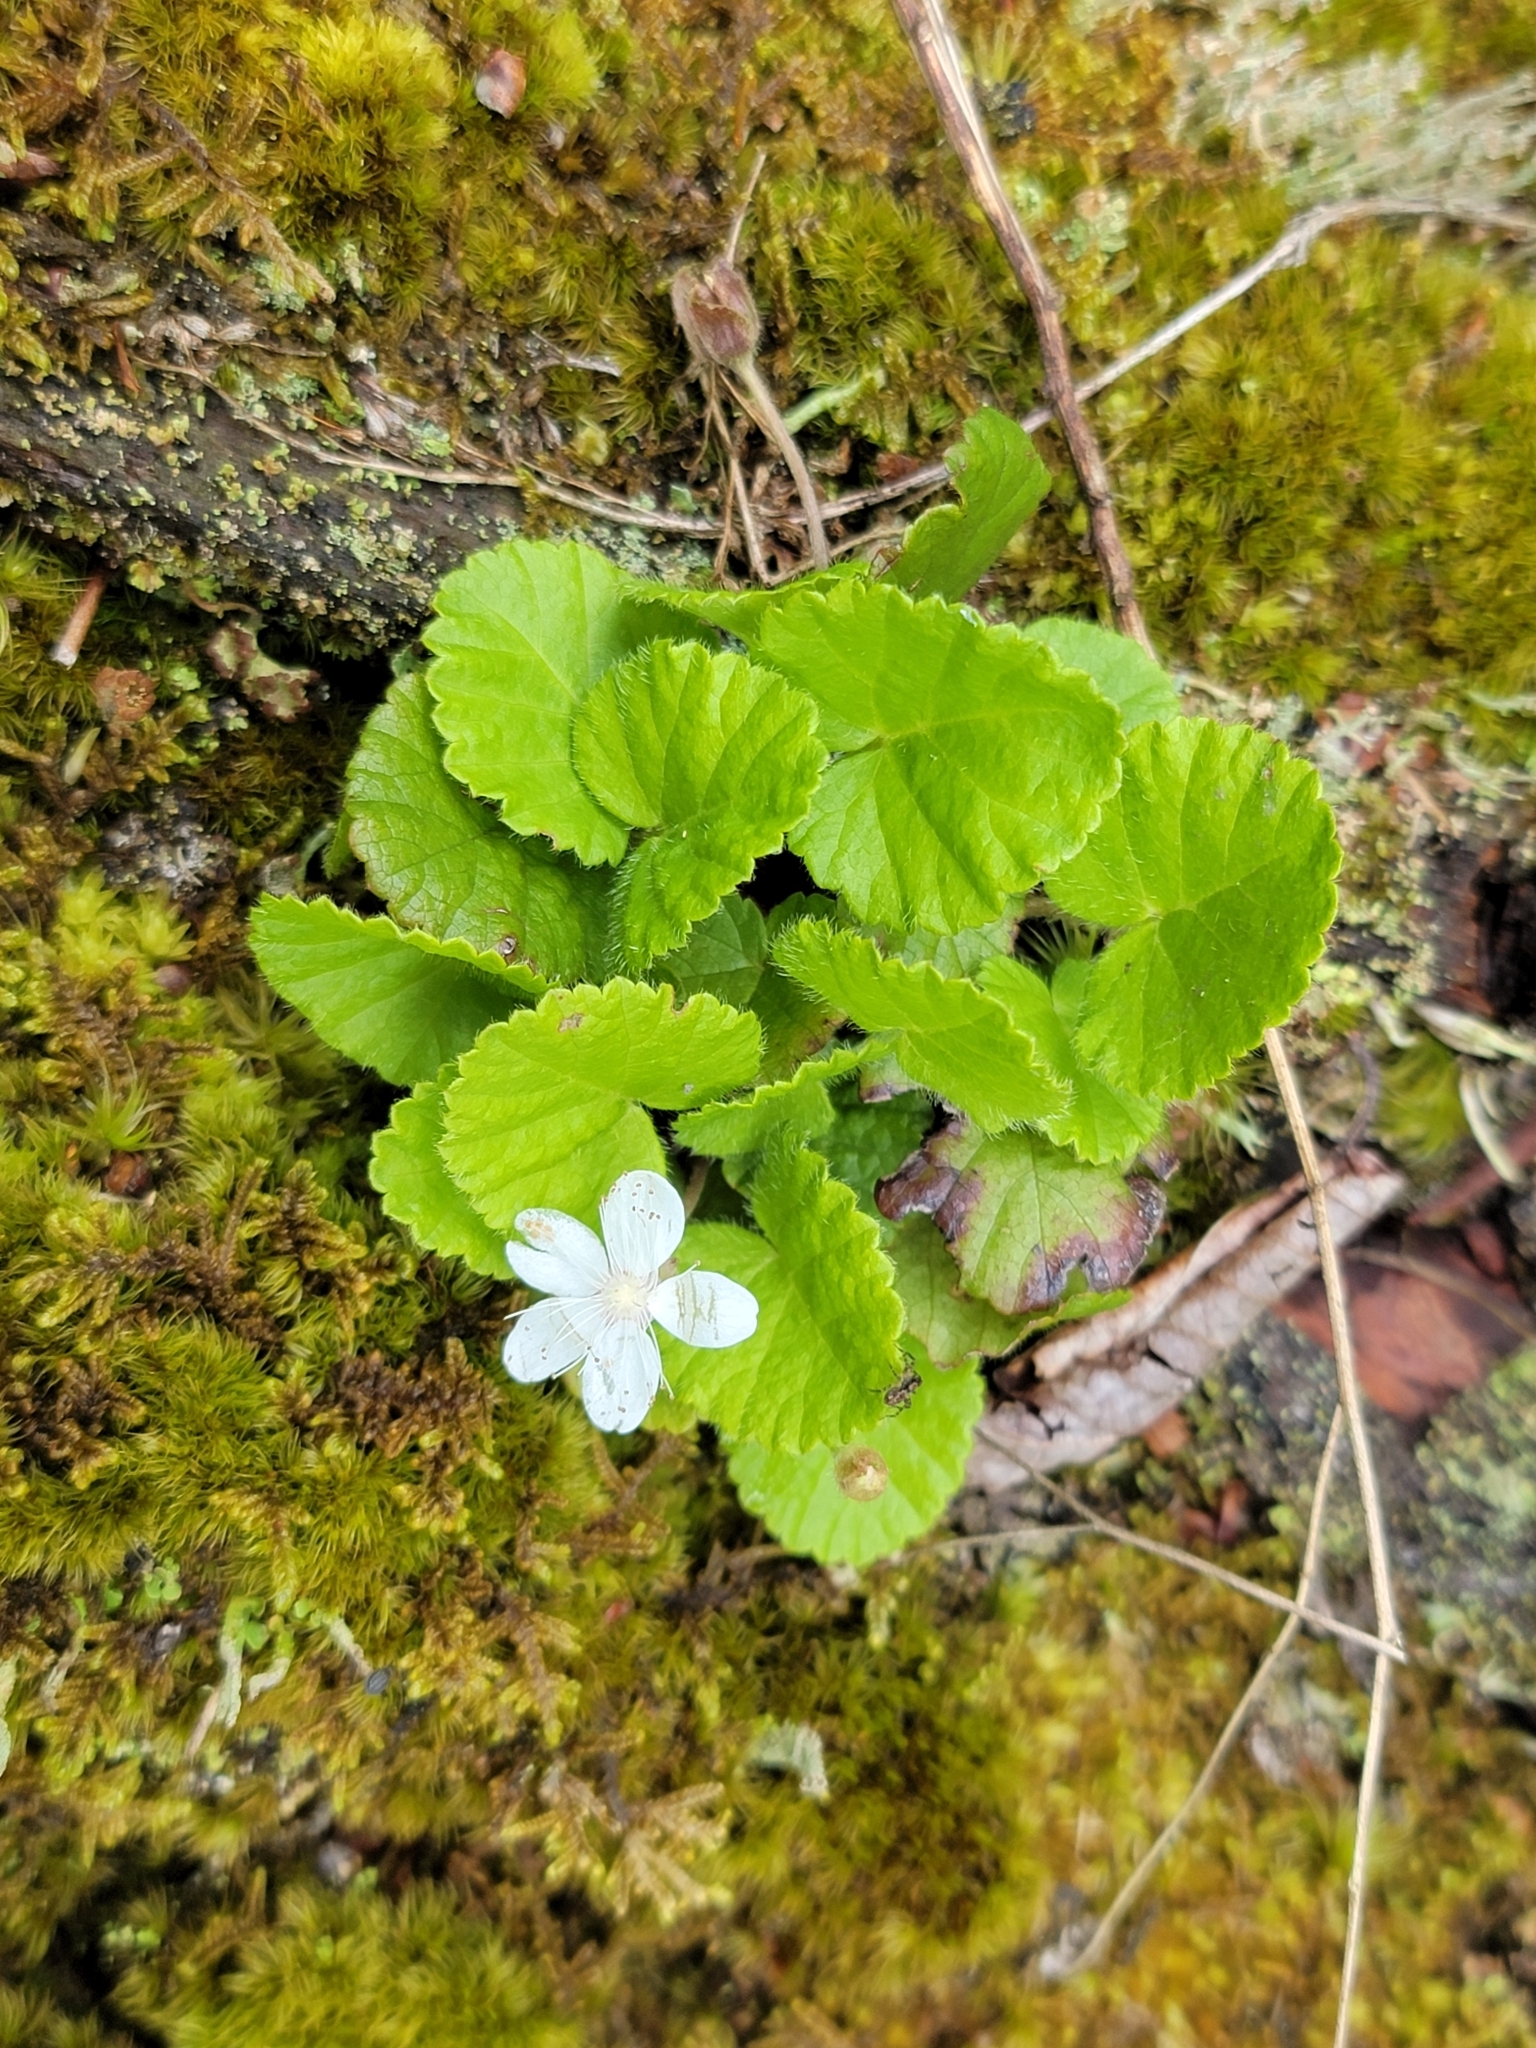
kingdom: Plantae
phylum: Tracheophyta
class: Magnoliopsida
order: Rosales
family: Rosaceae
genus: Dalibarda
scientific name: Dalibarda repens
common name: Dewdrop
